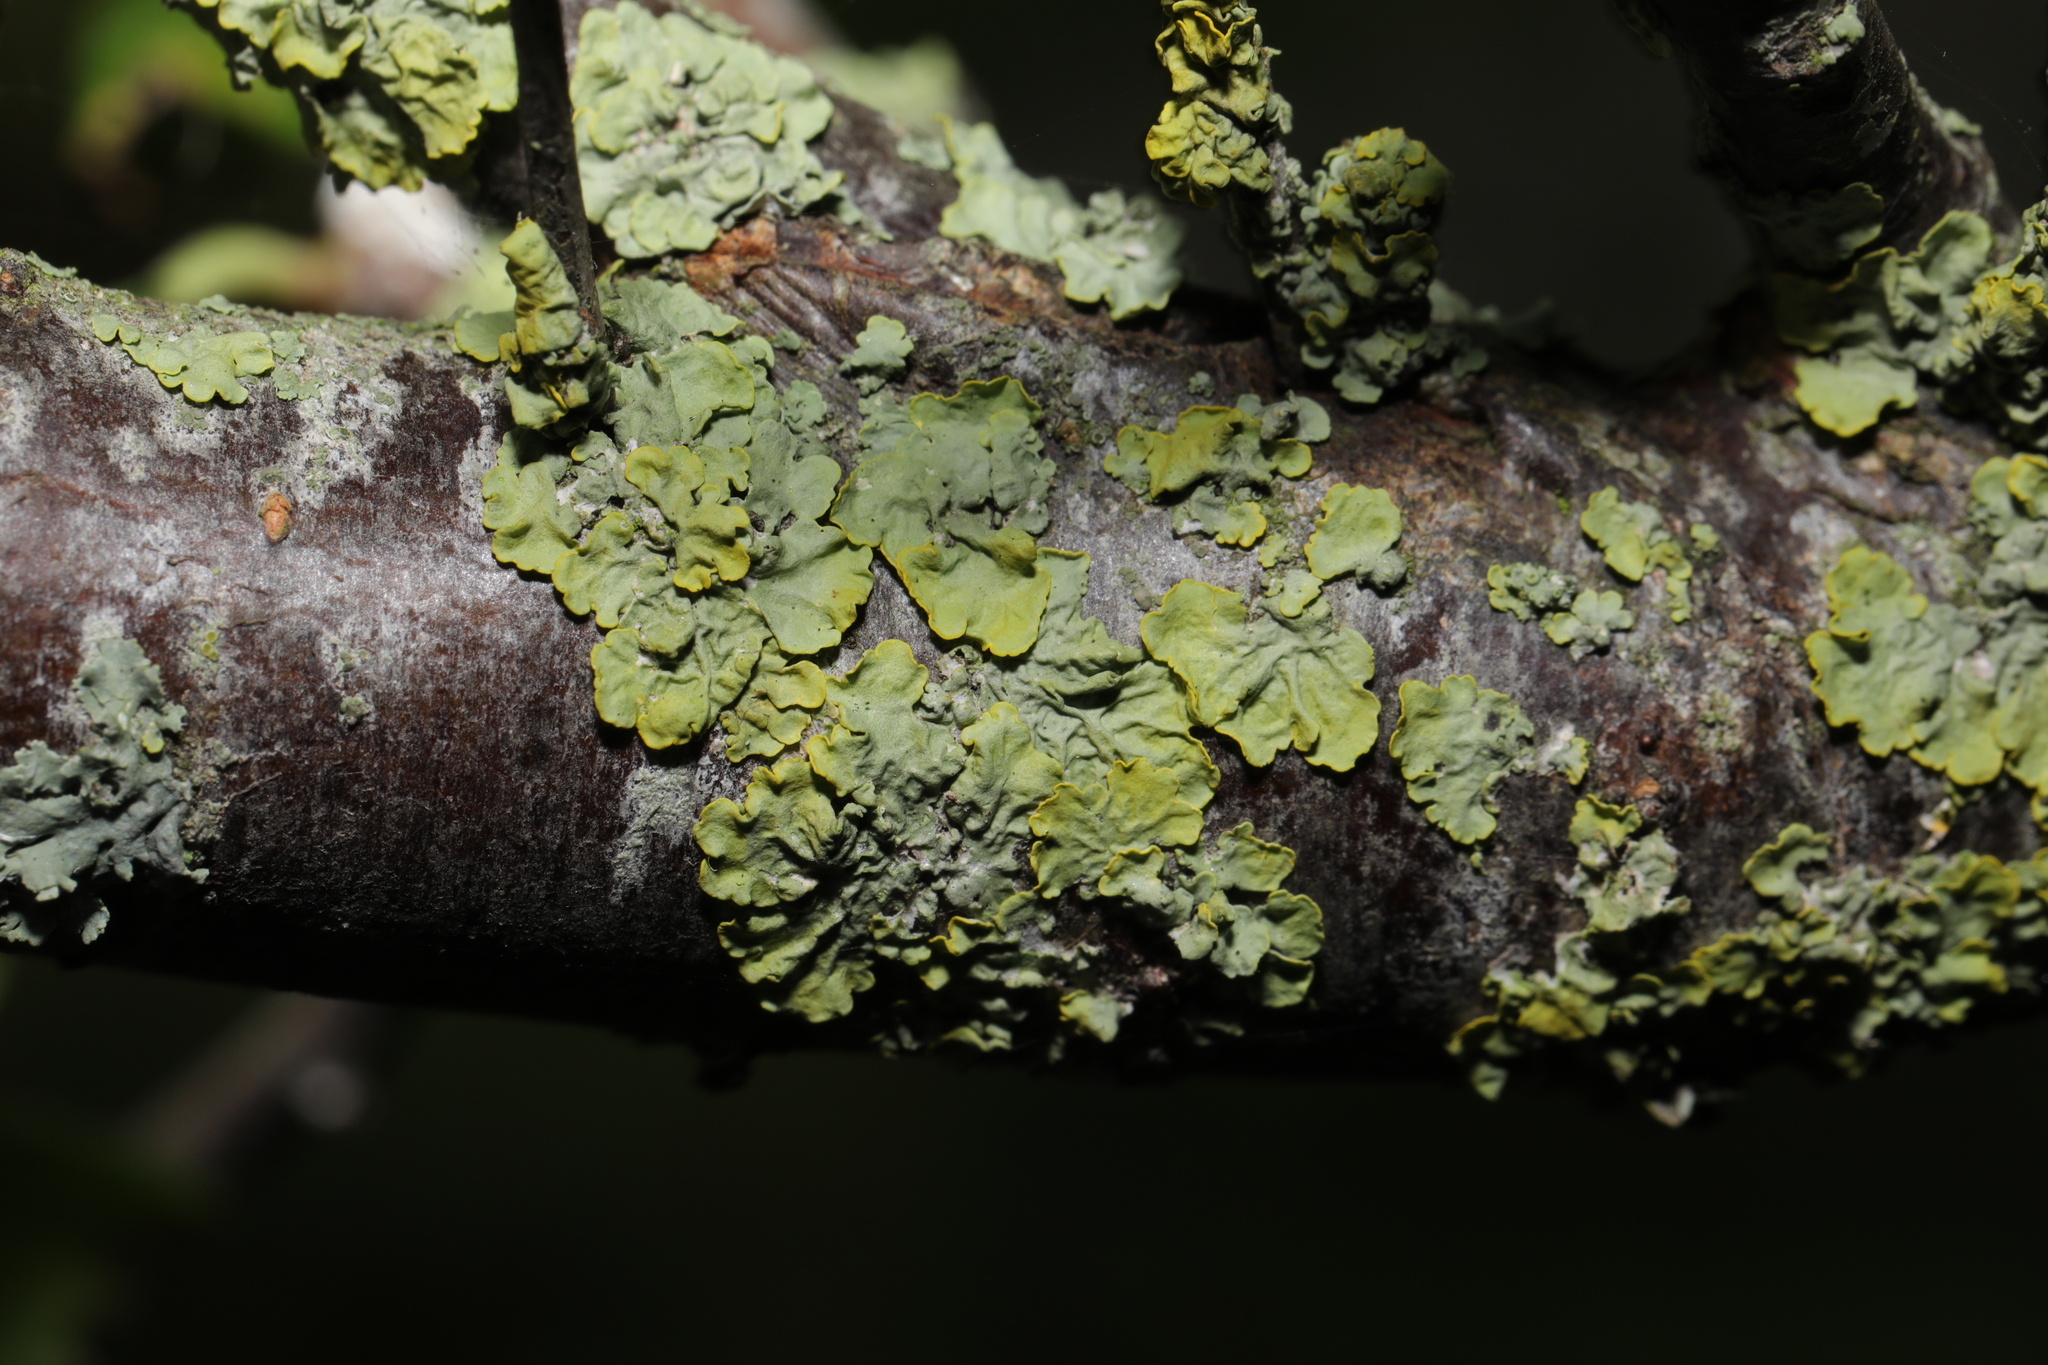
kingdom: Fungi
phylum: Ascomycota
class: Lecanoromycetes
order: Teloschistales
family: Teloschistaceae
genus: Xanthoria
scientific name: Xanthoria parietina
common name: Common orange lichen
